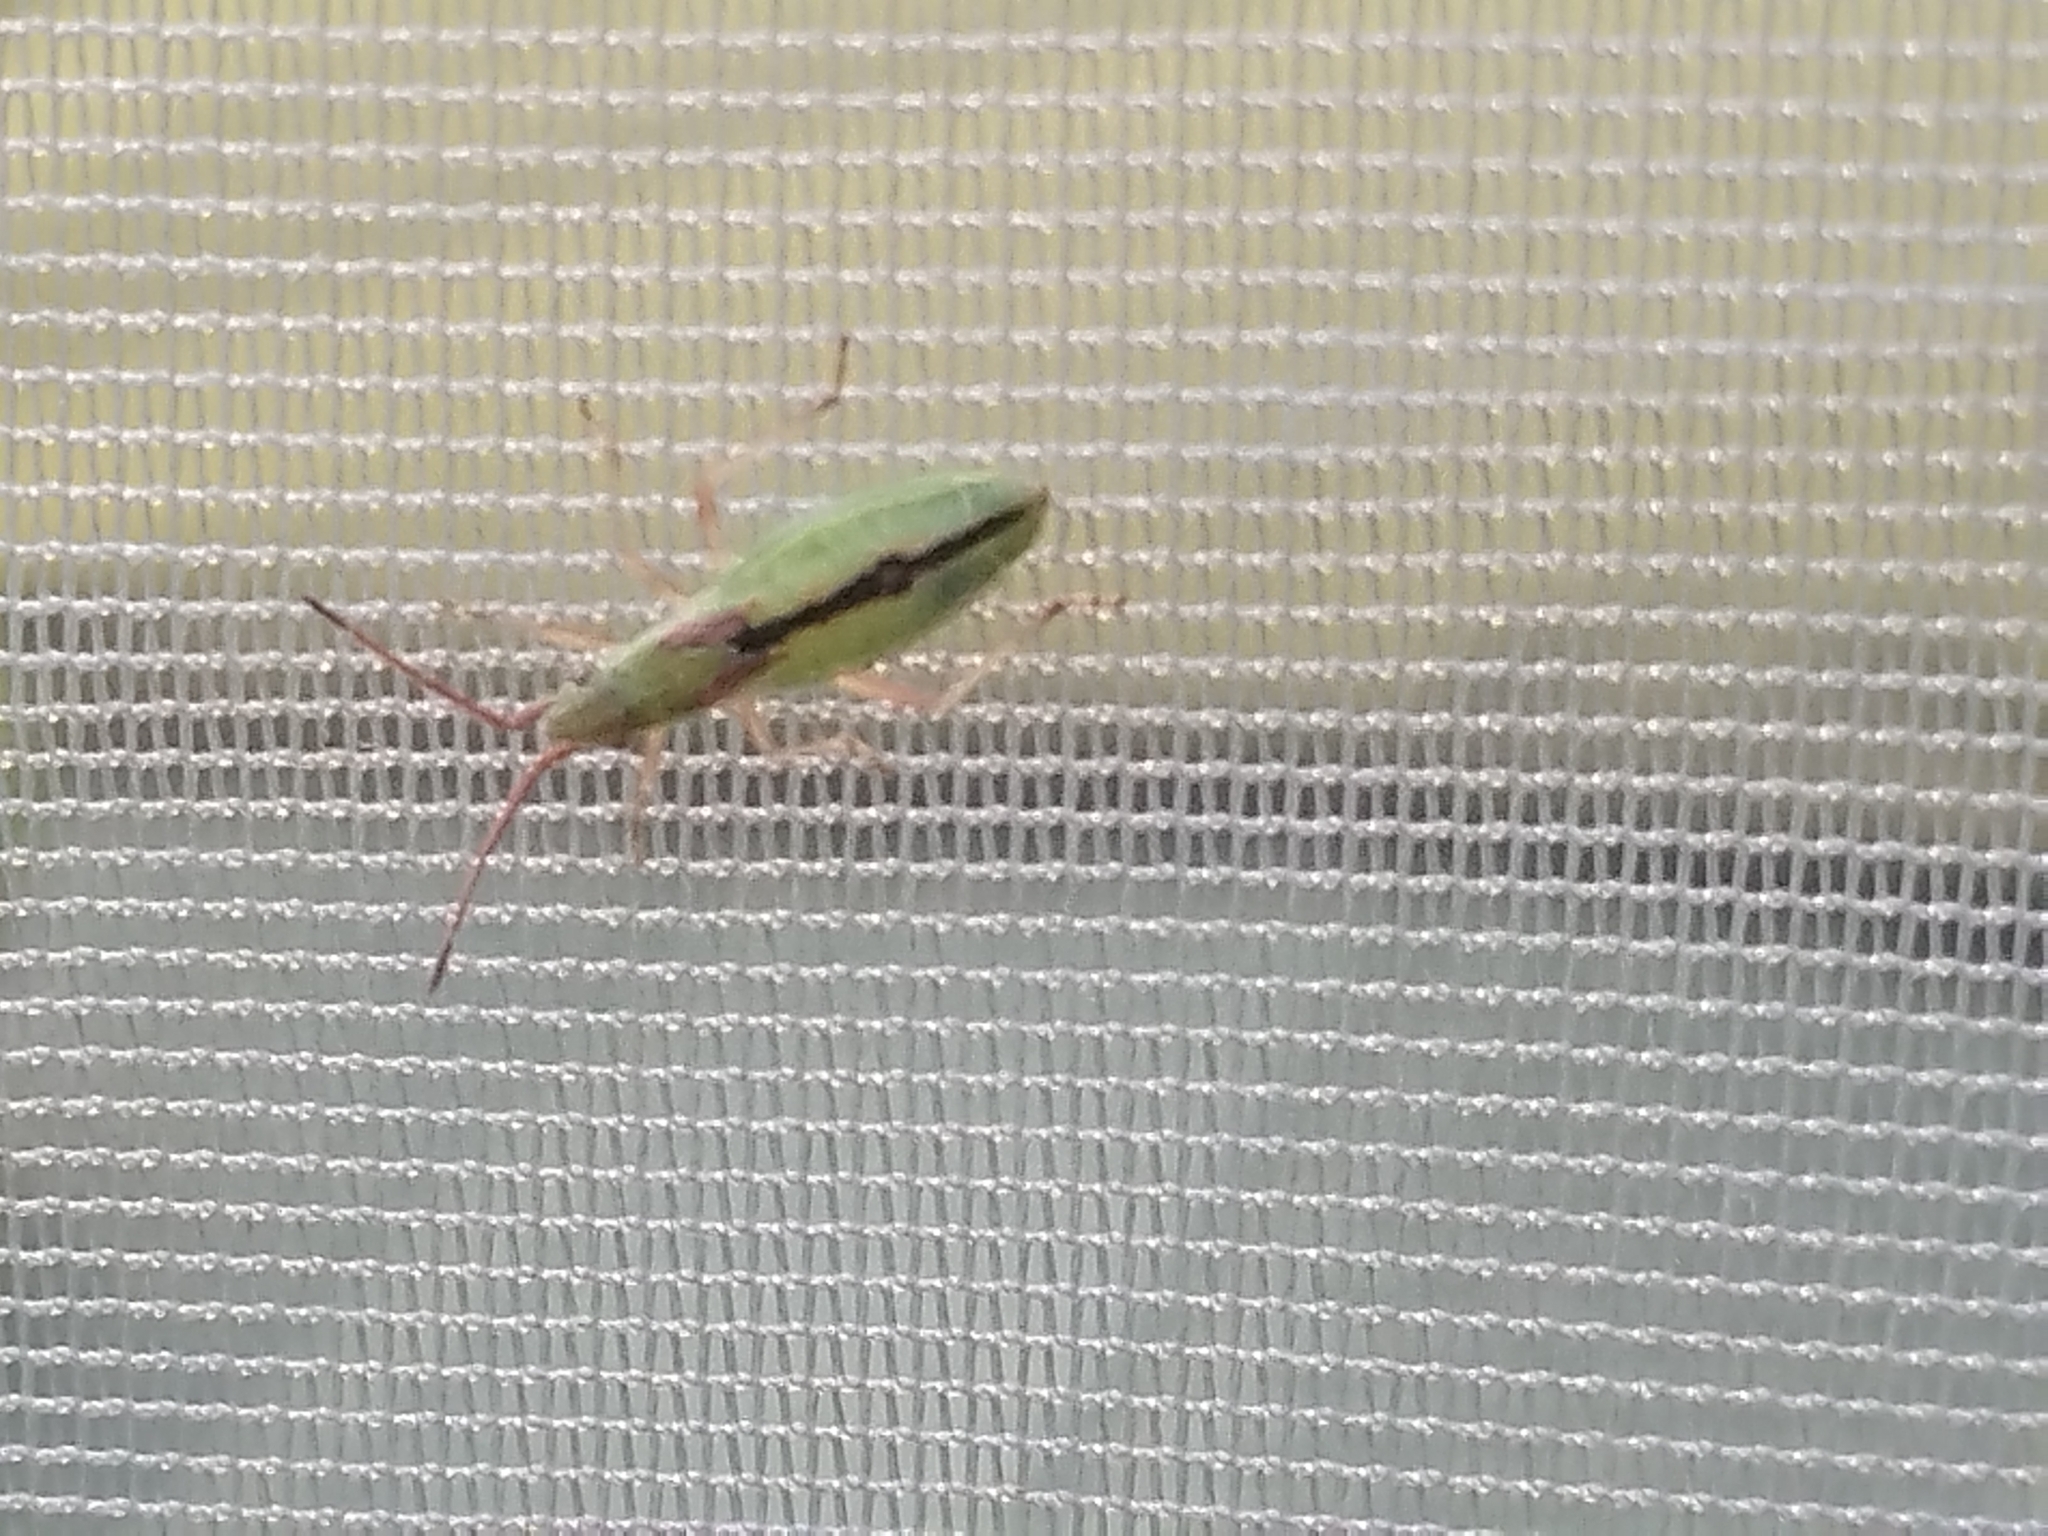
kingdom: Animalia
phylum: Arthropoda
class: Insecta
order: Hemiptera
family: Rhopalidae
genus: Myrmus
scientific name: Myrmus miriformis
